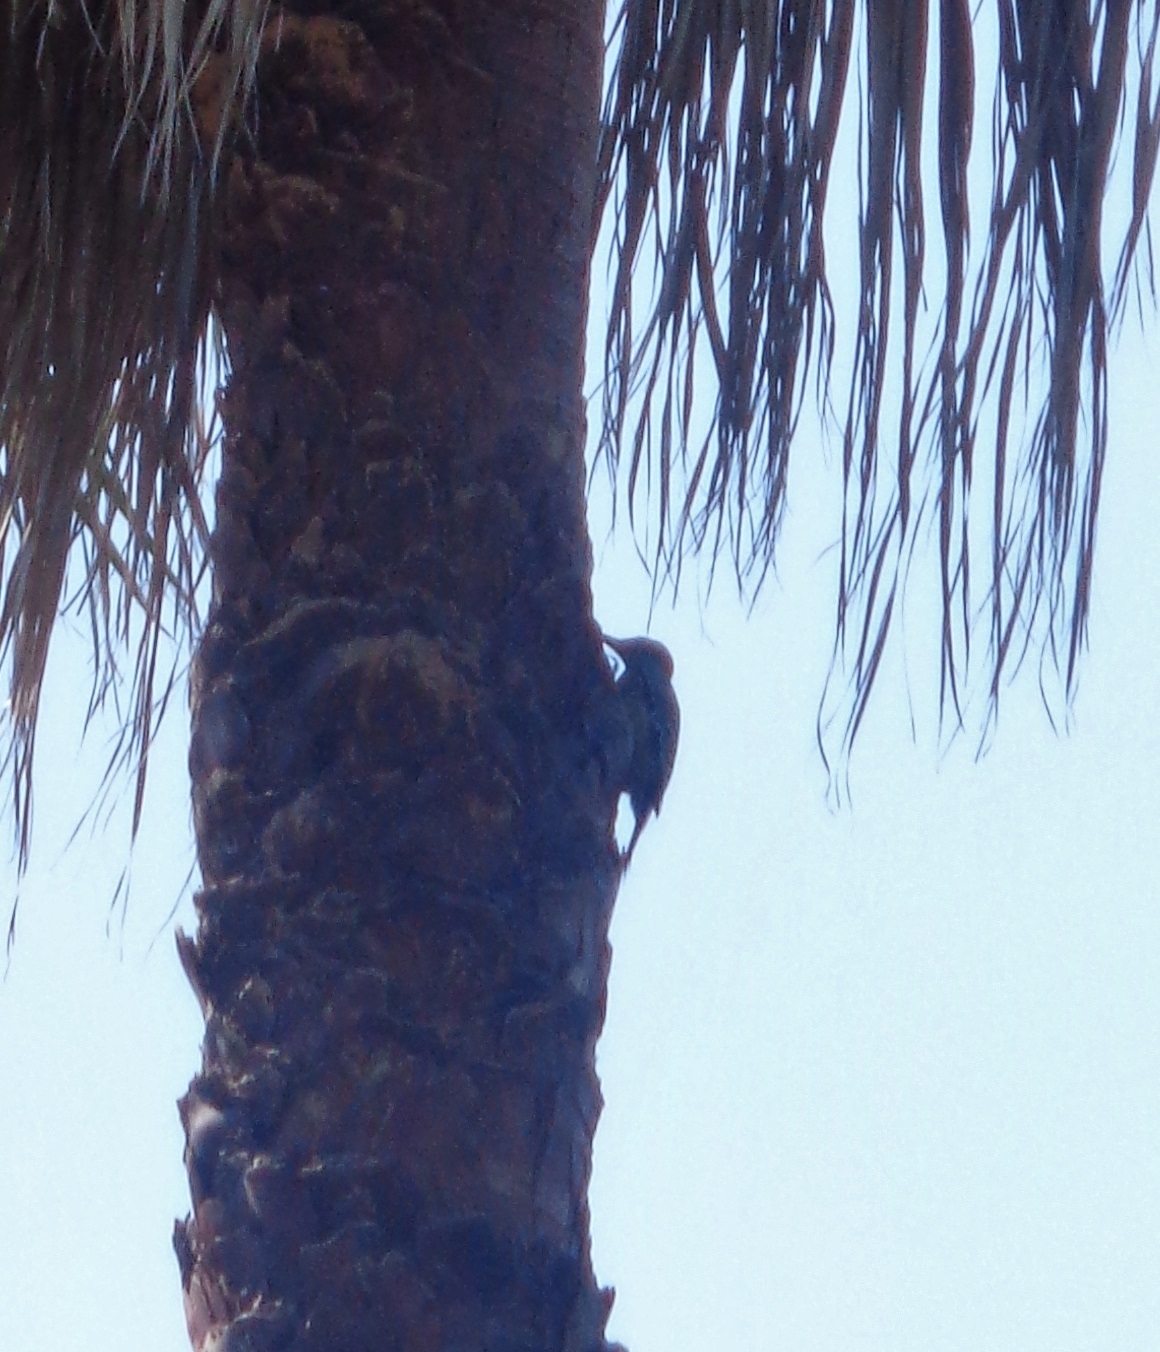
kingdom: Animalia
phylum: Chordata
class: Aves
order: Piciformes
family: Picidae
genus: Melanerpes
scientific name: Melanerpes aurifrons
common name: Golden-fronted woodpecker
